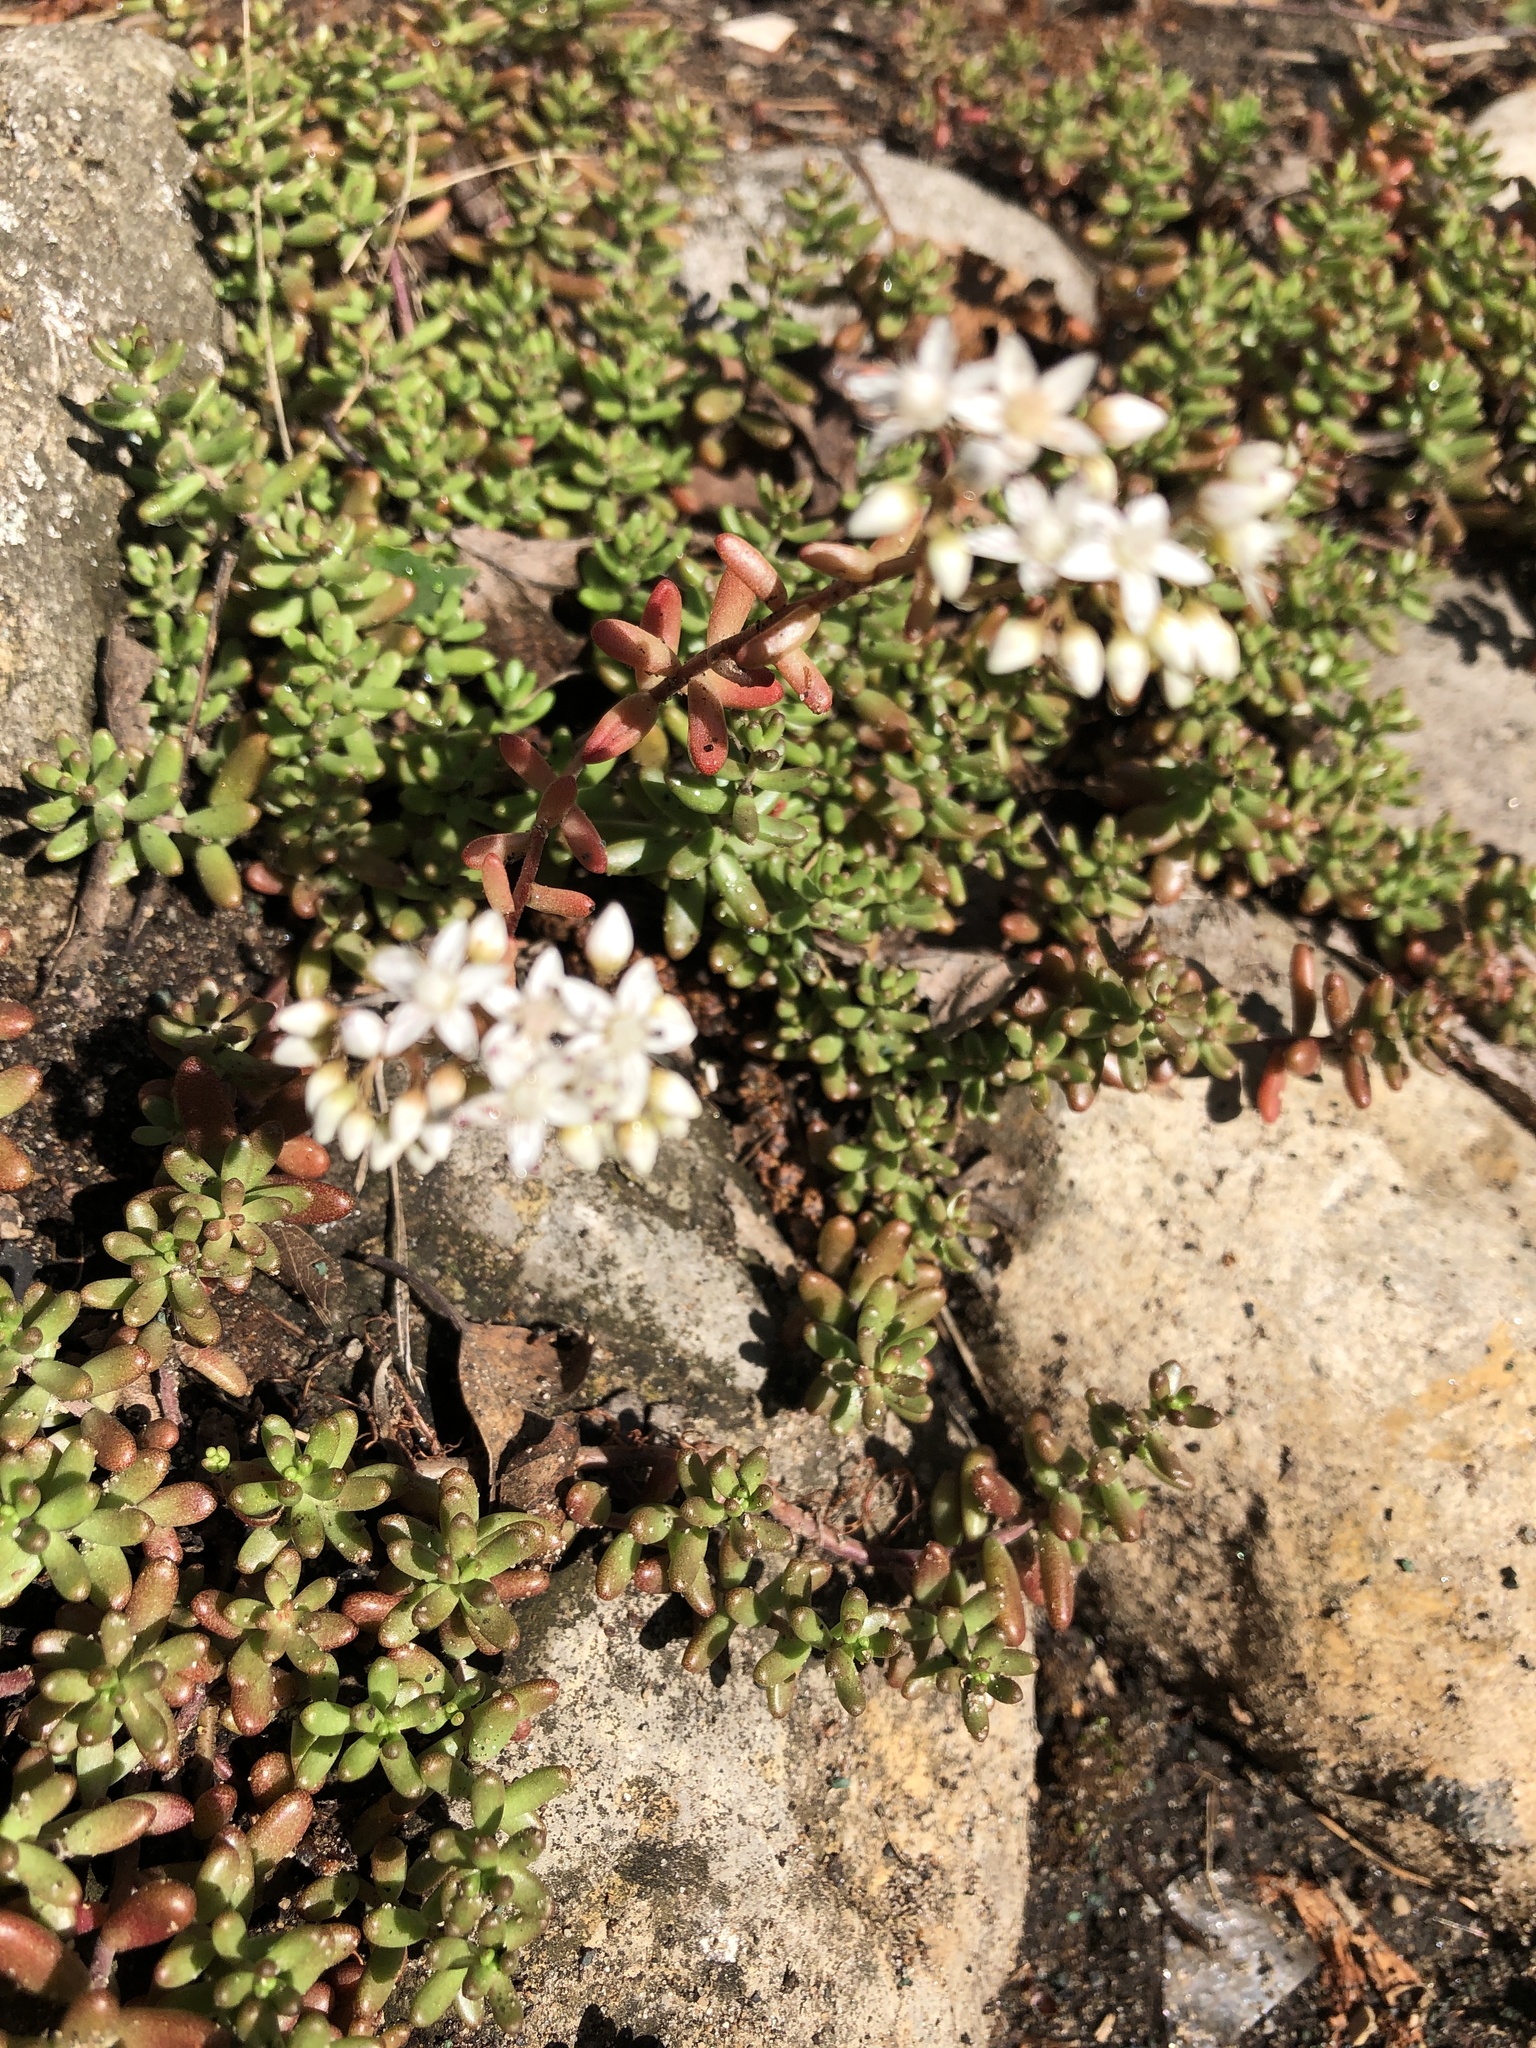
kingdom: Plantae
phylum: Tracheophyta
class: Magnoliopsida
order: Saxifragales
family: Crassulaceae
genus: Sedum
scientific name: Sedum album
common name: White stonecrop
